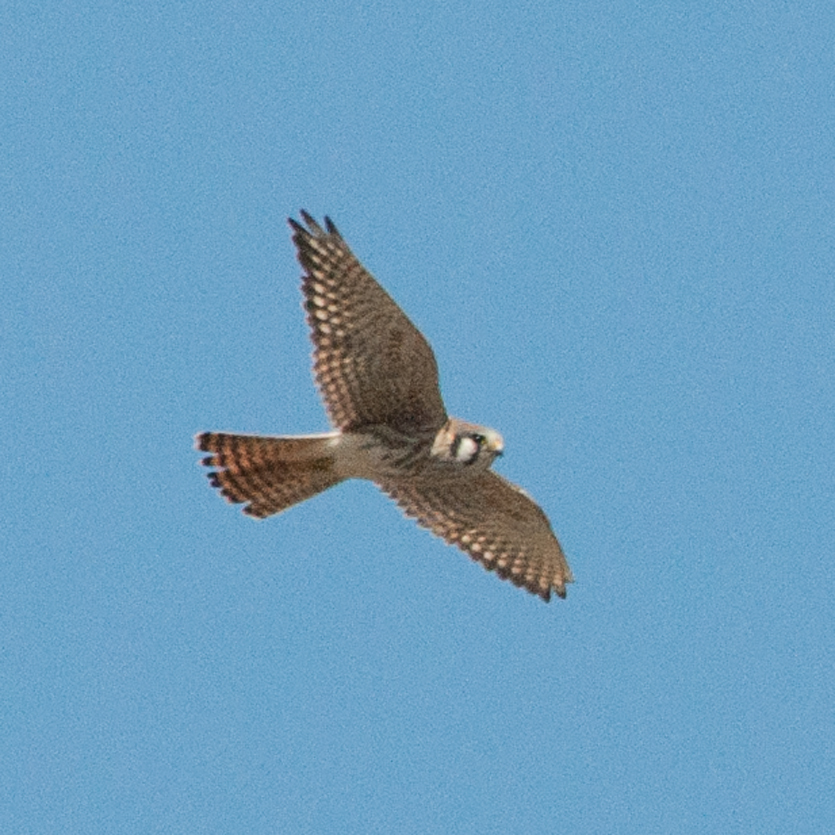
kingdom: Animalia
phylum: Chordata
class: Aves
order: Falconiformes
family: Falconidae
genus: Falco
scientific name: Falco sparverius
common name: American kestrel
